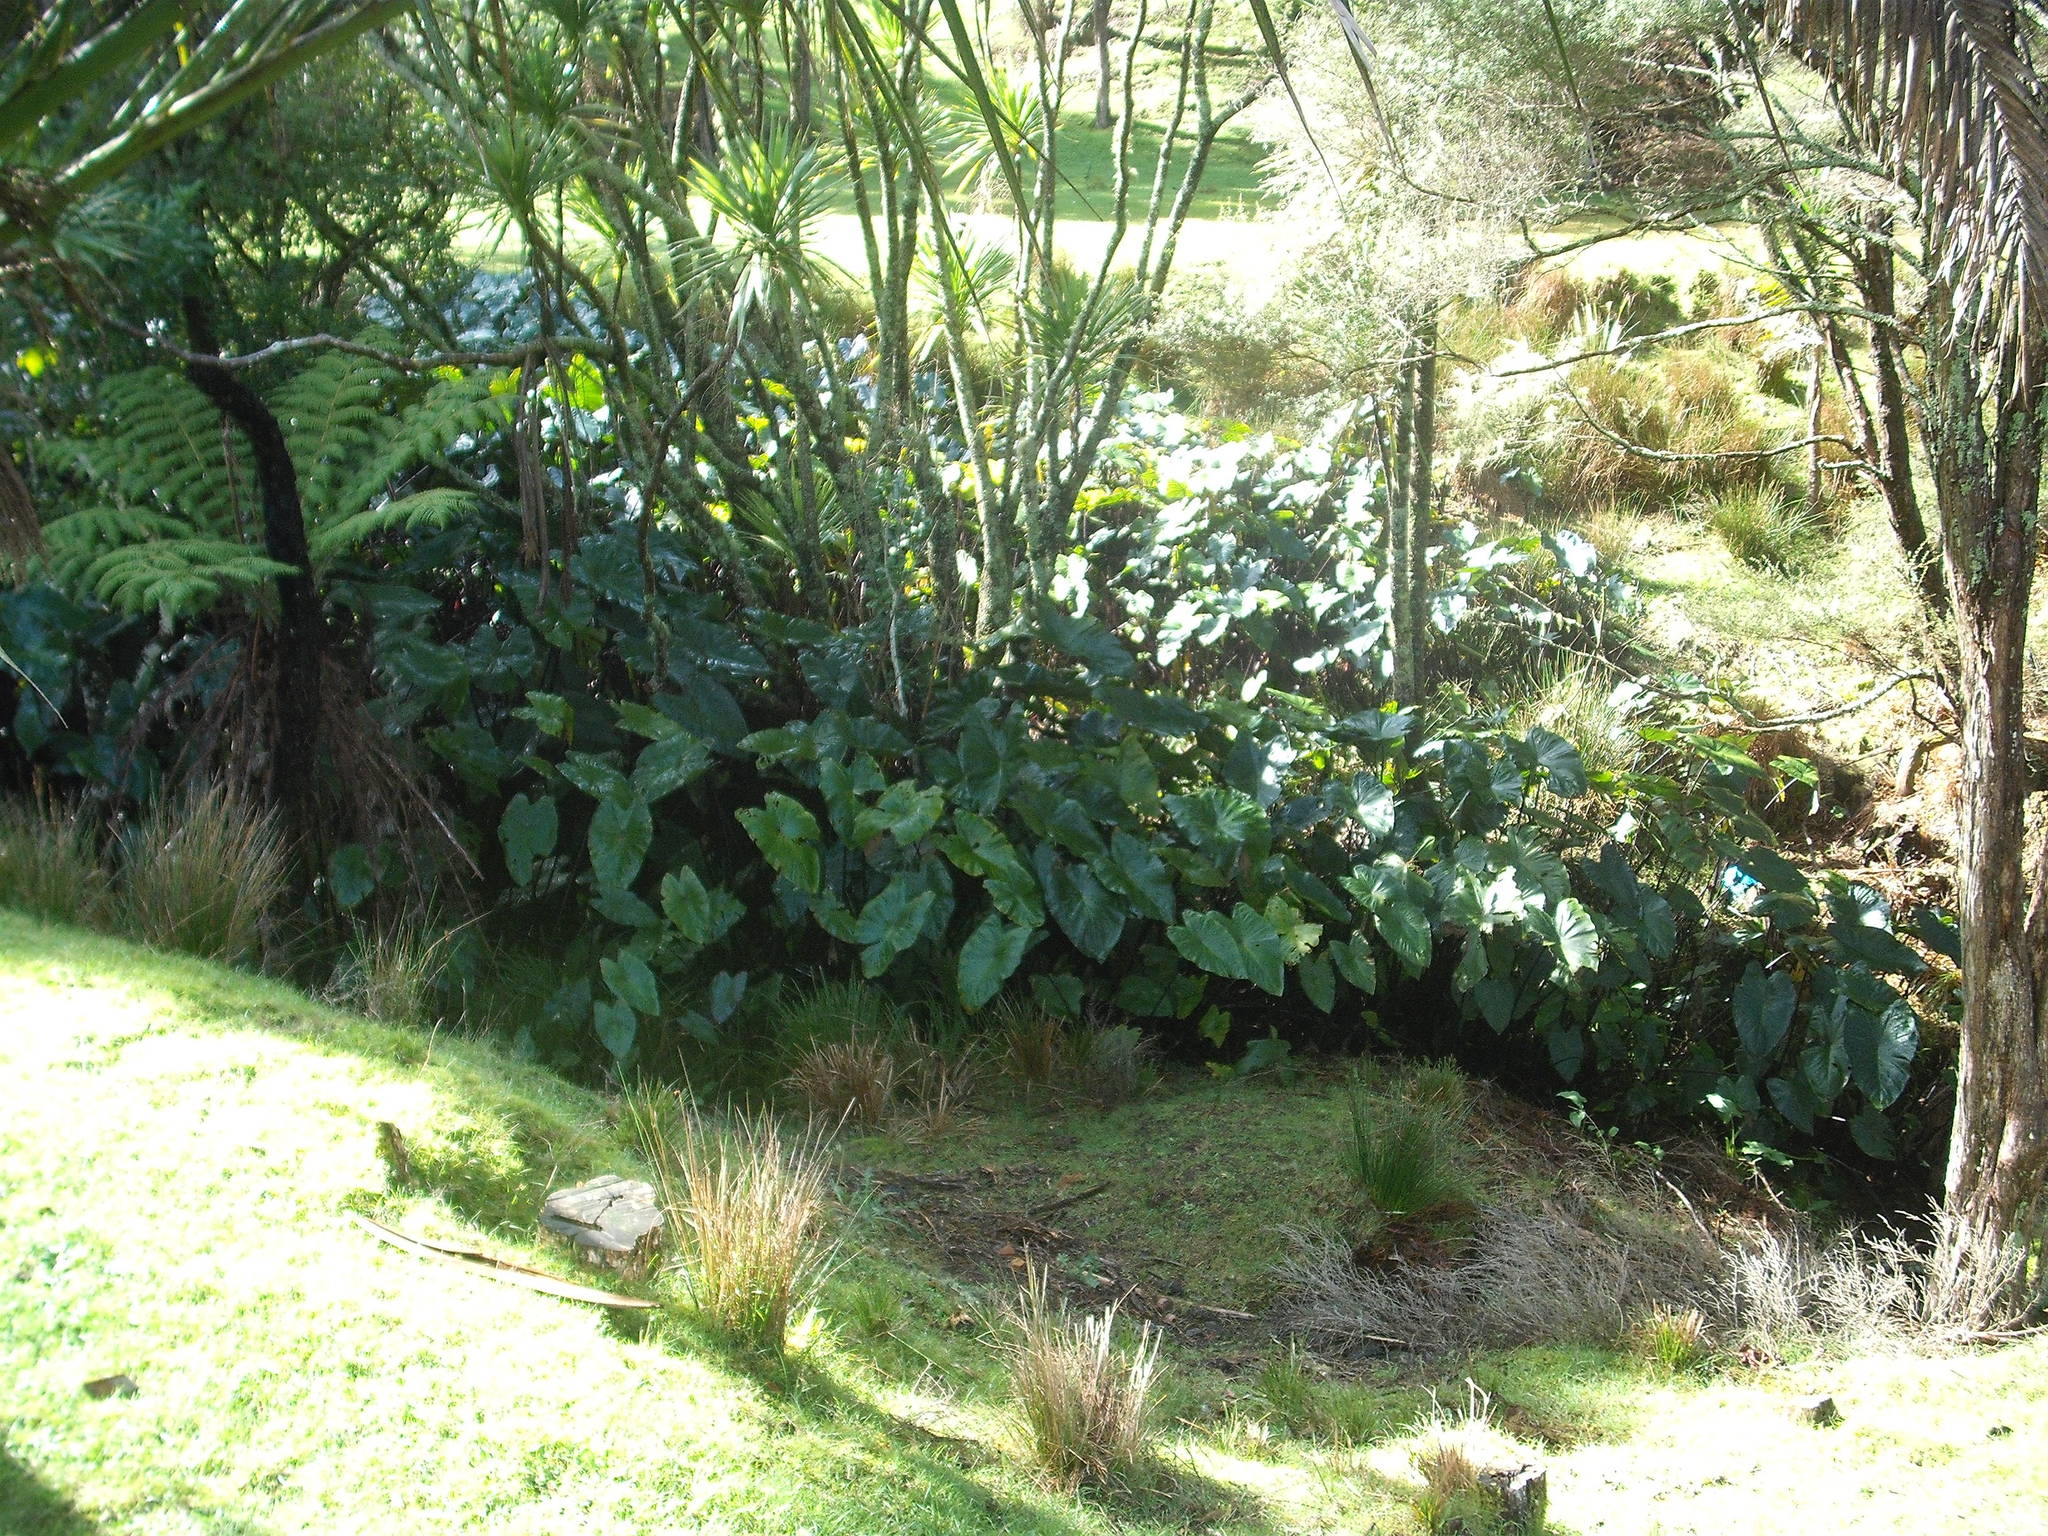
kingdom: Plantae
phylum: Tracheophyta
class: Liliopsida
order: Alismatales
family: Araceae
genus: Colocasia
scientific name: Colocasia esculenta
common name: Taro
